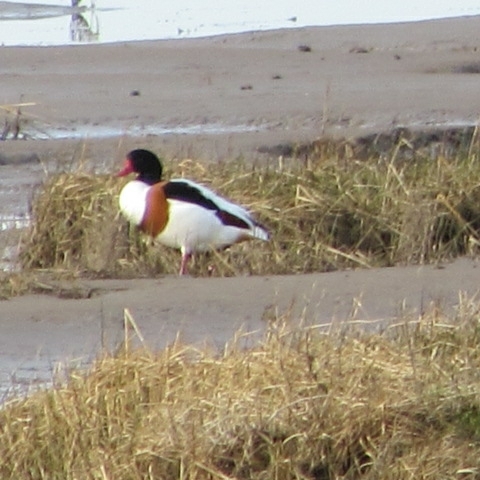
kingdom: Animalia
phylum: Chordata
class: Aves
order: Anseriformes
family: Anatidae
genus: Tadorna
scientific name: Tadorna tadorna
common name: Common shelduck
